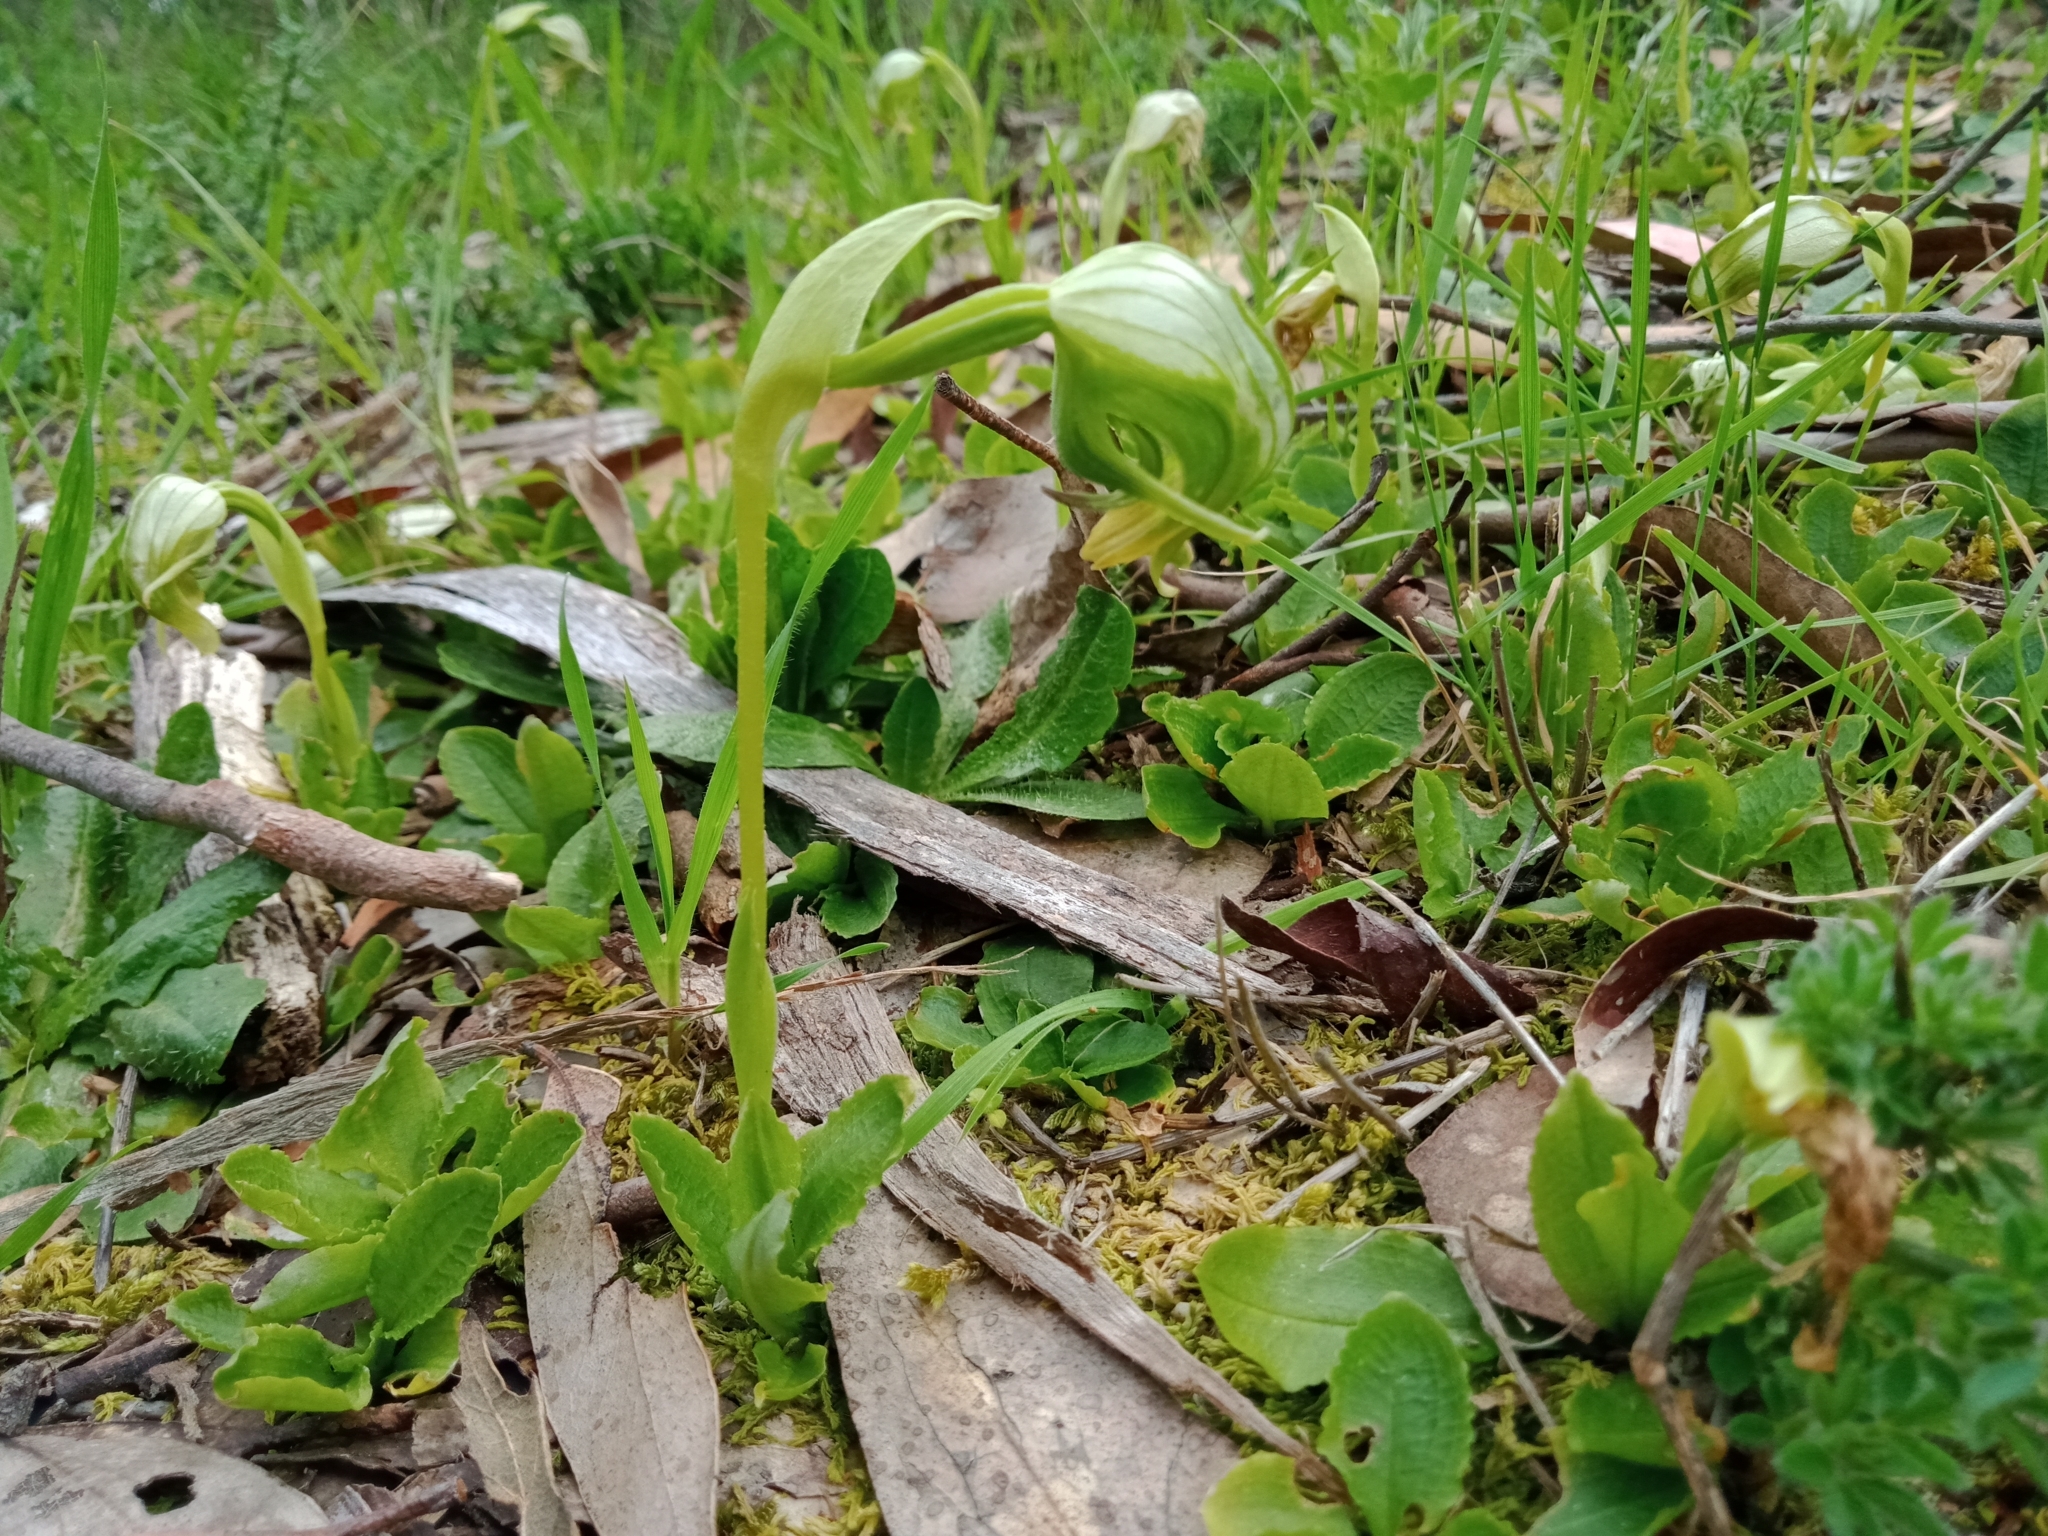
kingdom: Plantae
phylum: Tracheophyta
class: Liliopsida
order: Asparagales
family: Orchidaceae
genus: Pterostylis
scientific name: Pterostylis nutans
